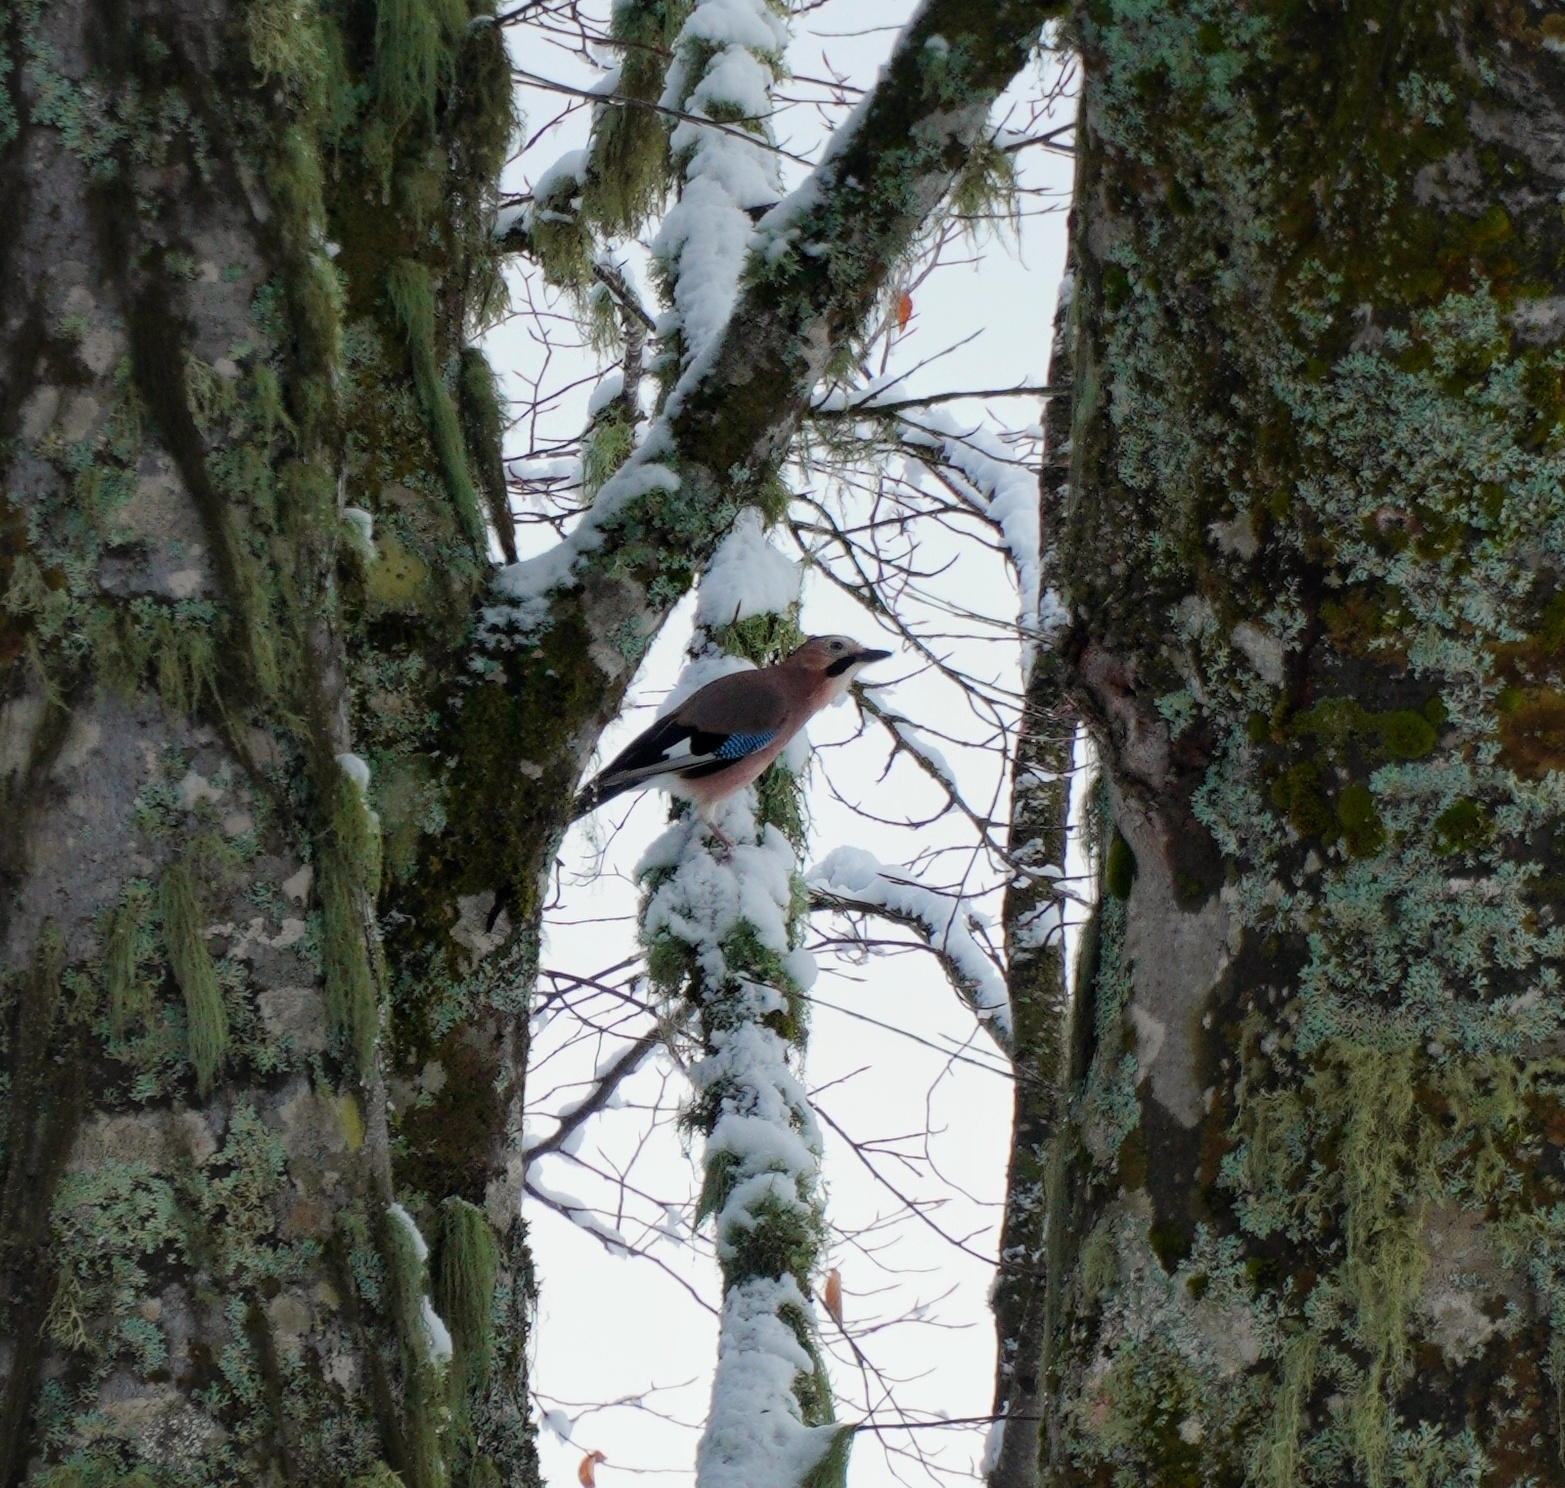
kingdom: Animalia
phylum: Chordata
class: Aves
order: Passeriformes
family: Corvidae
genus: Garrulus
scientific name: Garrulus glandarius
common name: Eurasian jay
